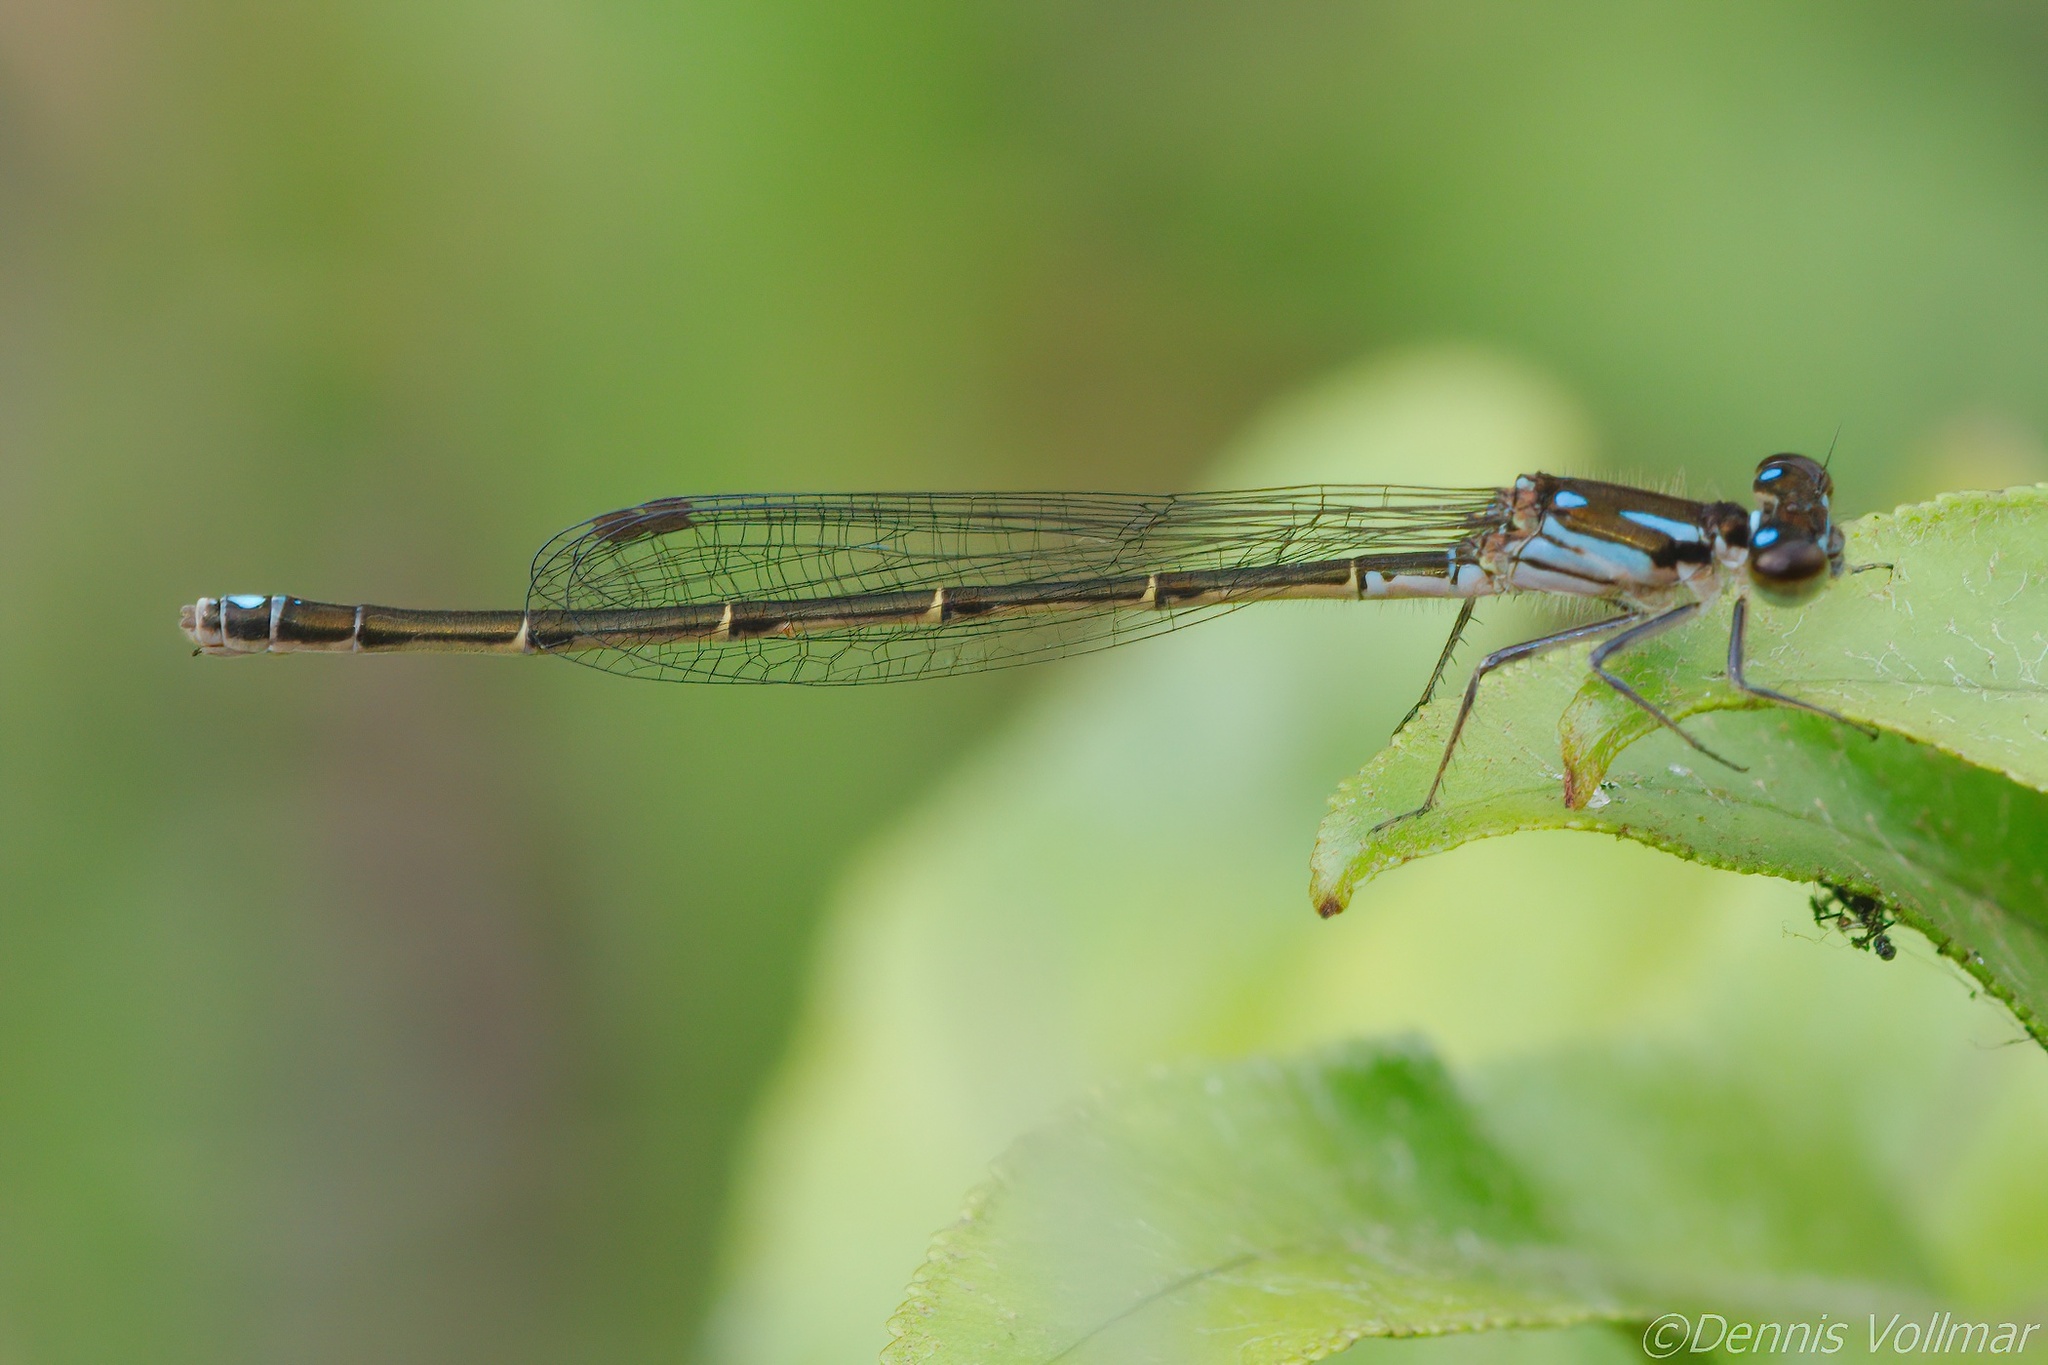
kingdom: Animalia
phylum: Arthropoda
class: Insecta
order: Odonata
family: Coenagrionidae
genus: Ischnura
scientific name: Ischnura posita
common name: Fragile forktail
